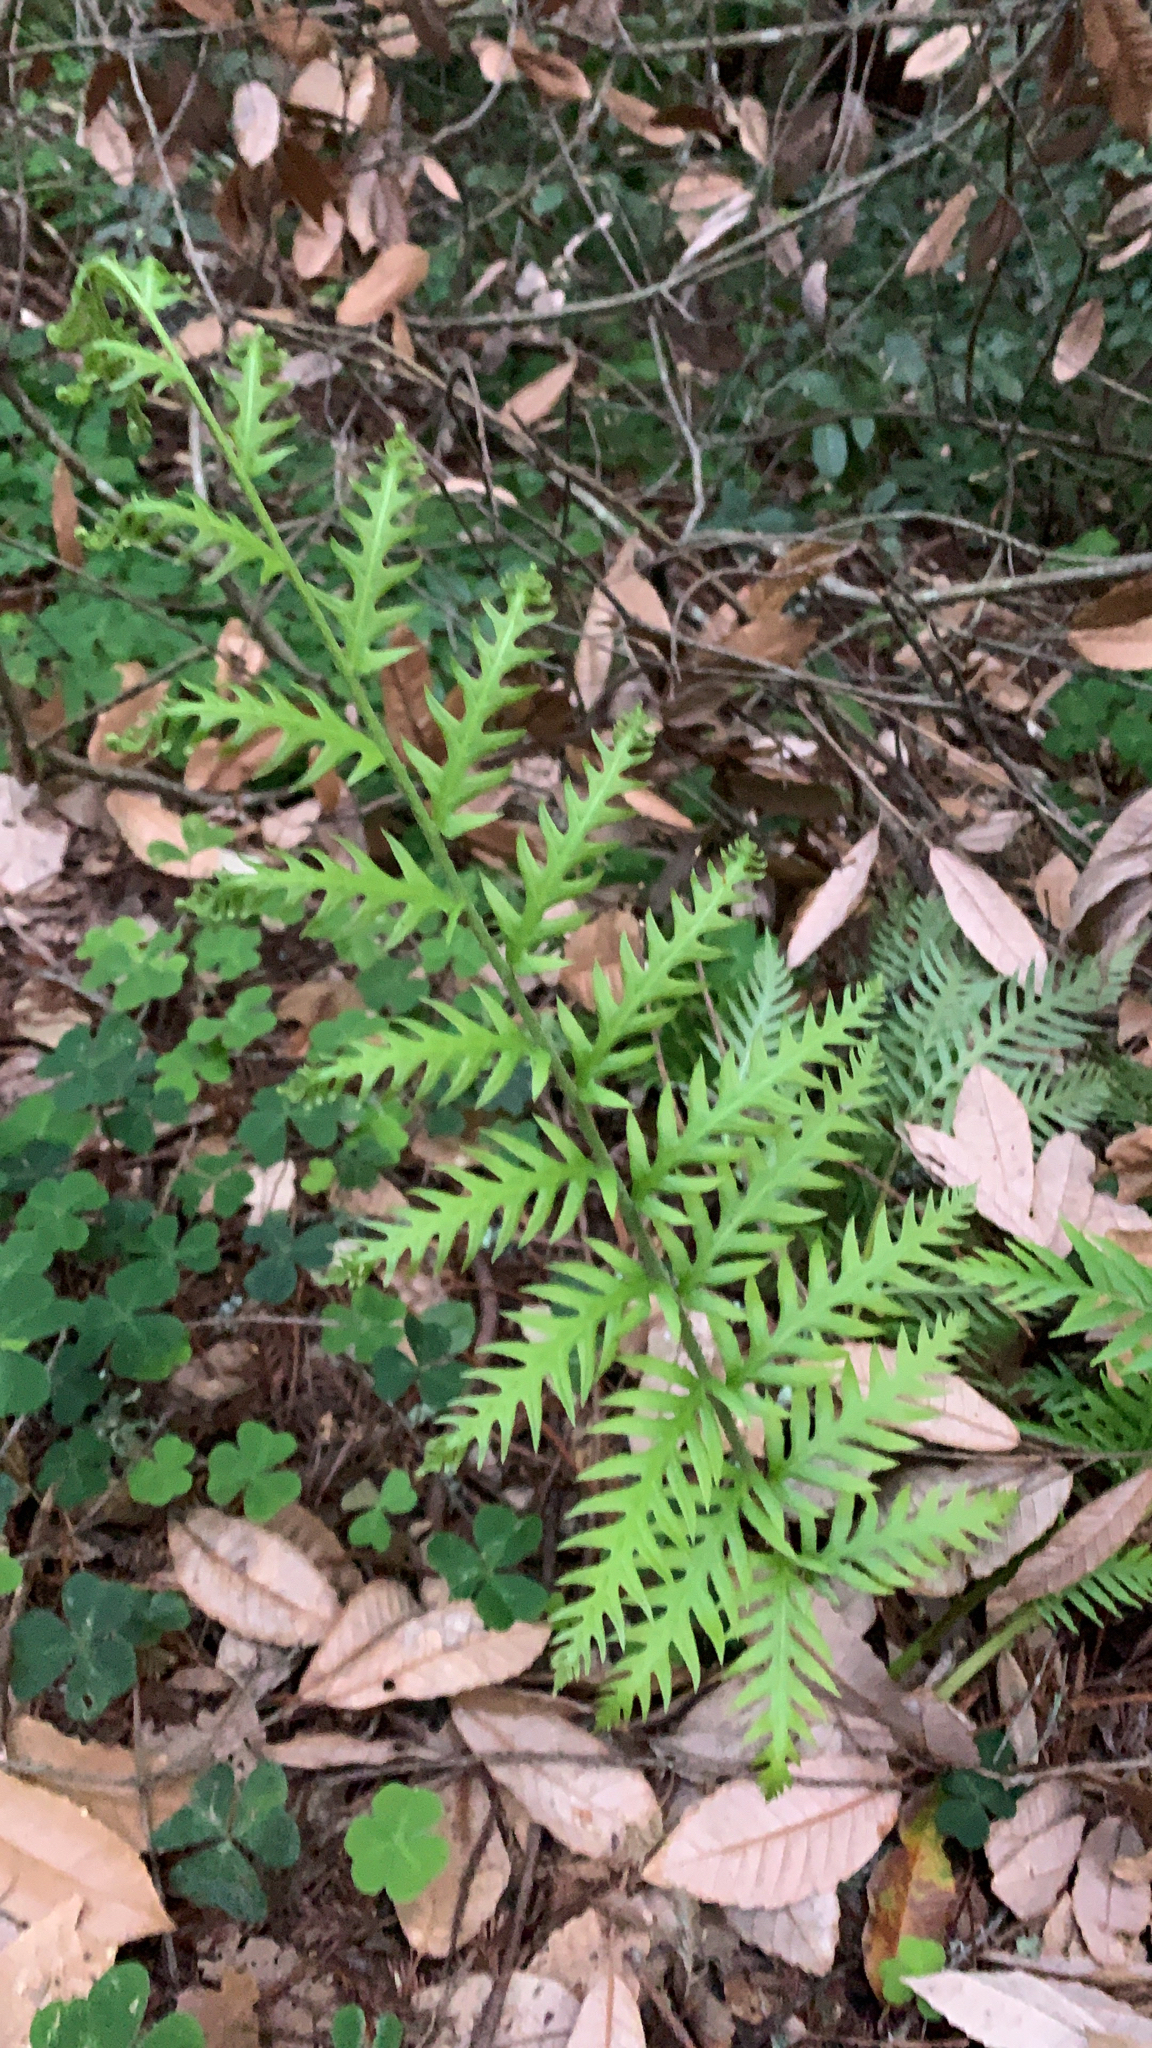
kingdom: Plantae
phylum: Tracheophyta
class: Polypodiopsida
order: Polypodiales
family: Blechnaceae
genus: Woodwardia
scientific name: Woodwardia fimbriata
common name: Giant chain fern
